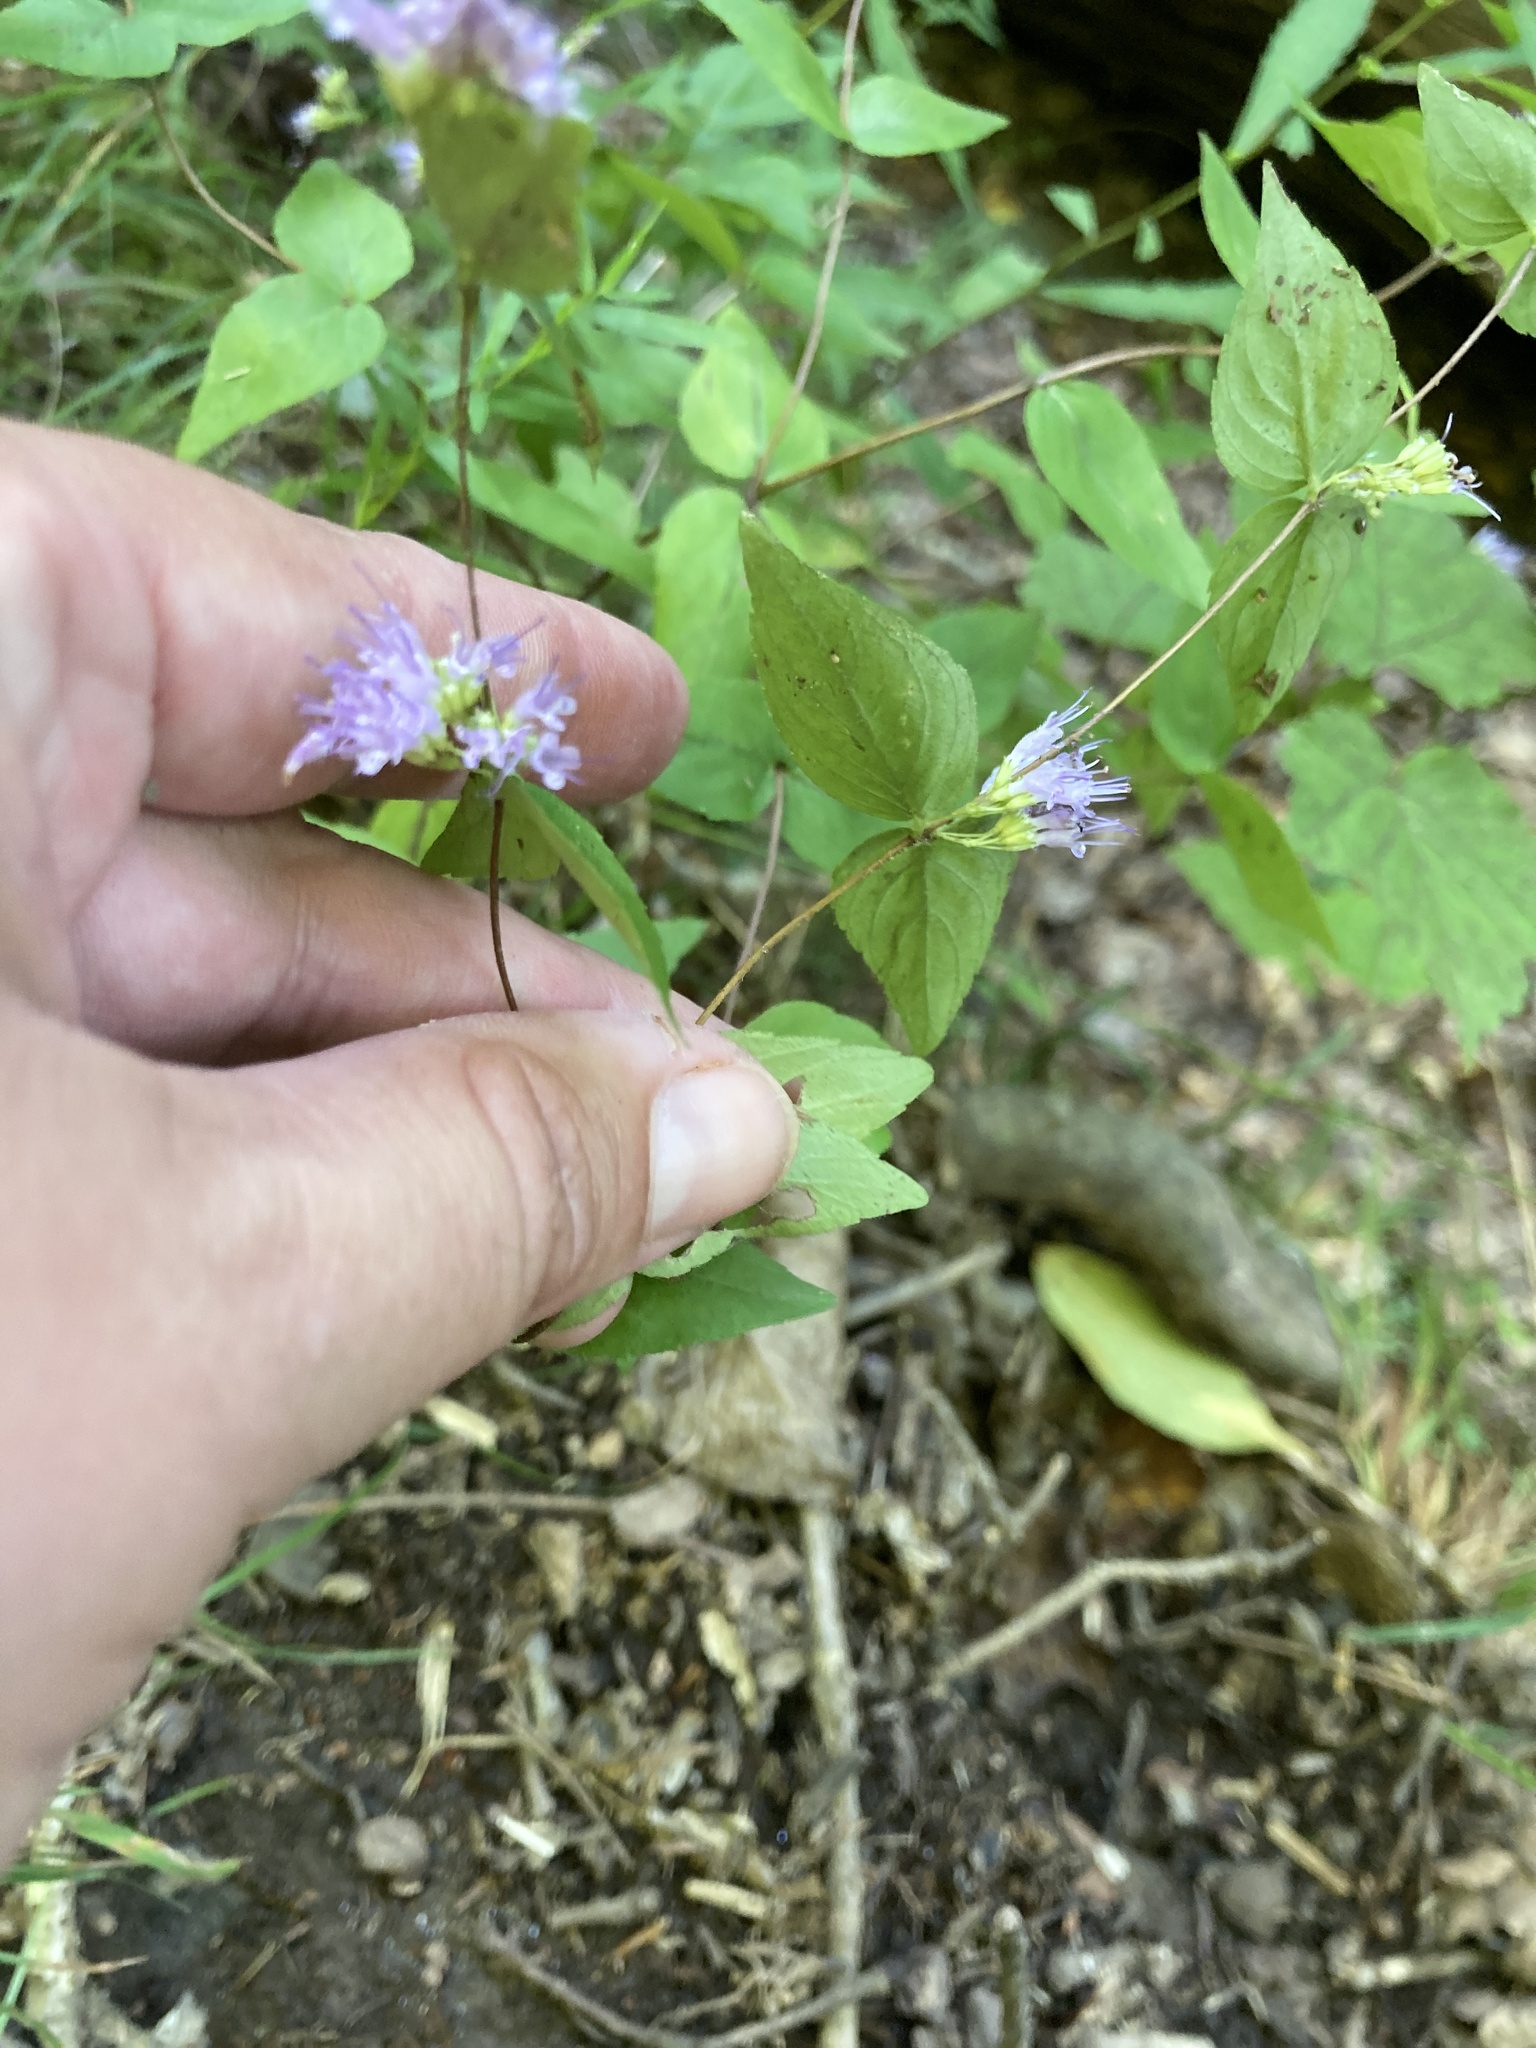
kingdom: Plantae
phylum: Tracheophyta
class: Magnoliopsida
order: Lamiales
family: Lamiaceae
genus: Cunila
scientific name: Cunila origanoides
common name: American dittany
